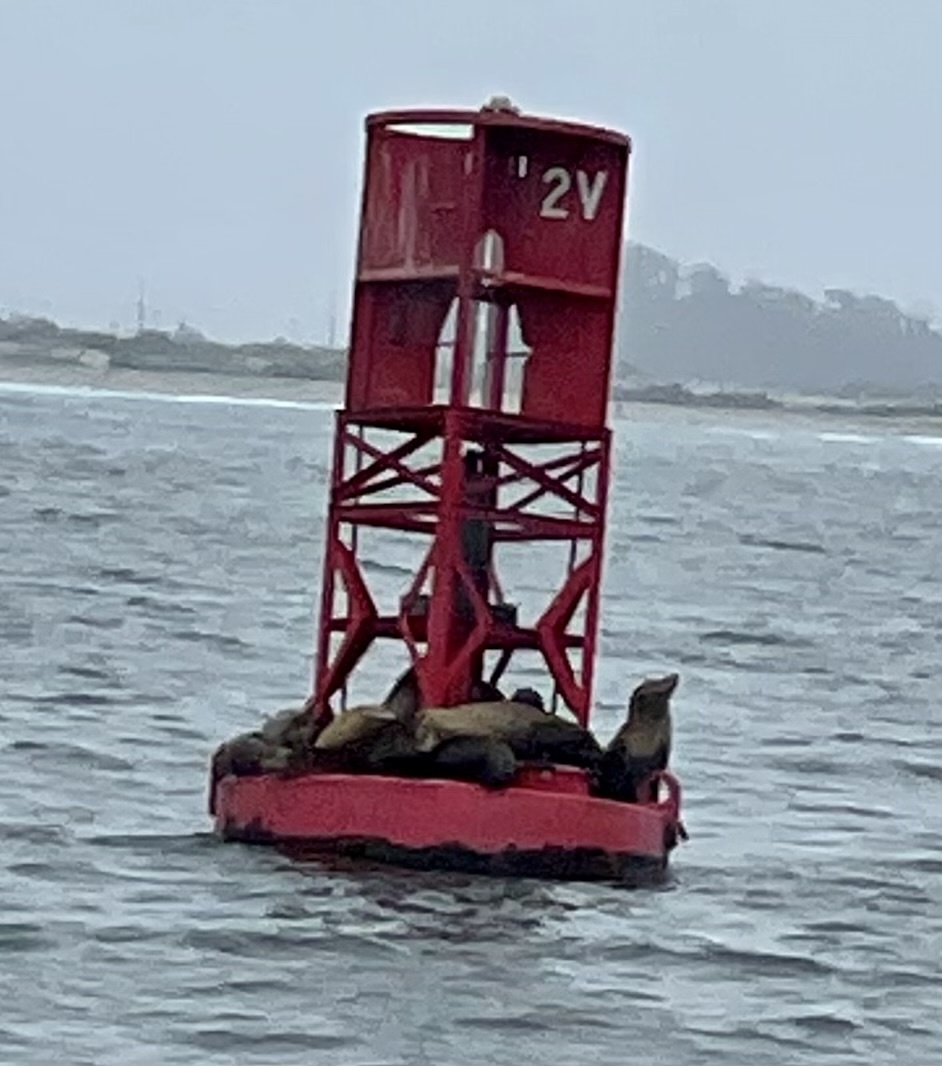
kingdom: Animalia
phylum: Chordata
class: Mammalia
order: Carnivora
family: Otariidae
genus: Zalophus
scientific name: Zalophus californianus
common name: California sea lion
